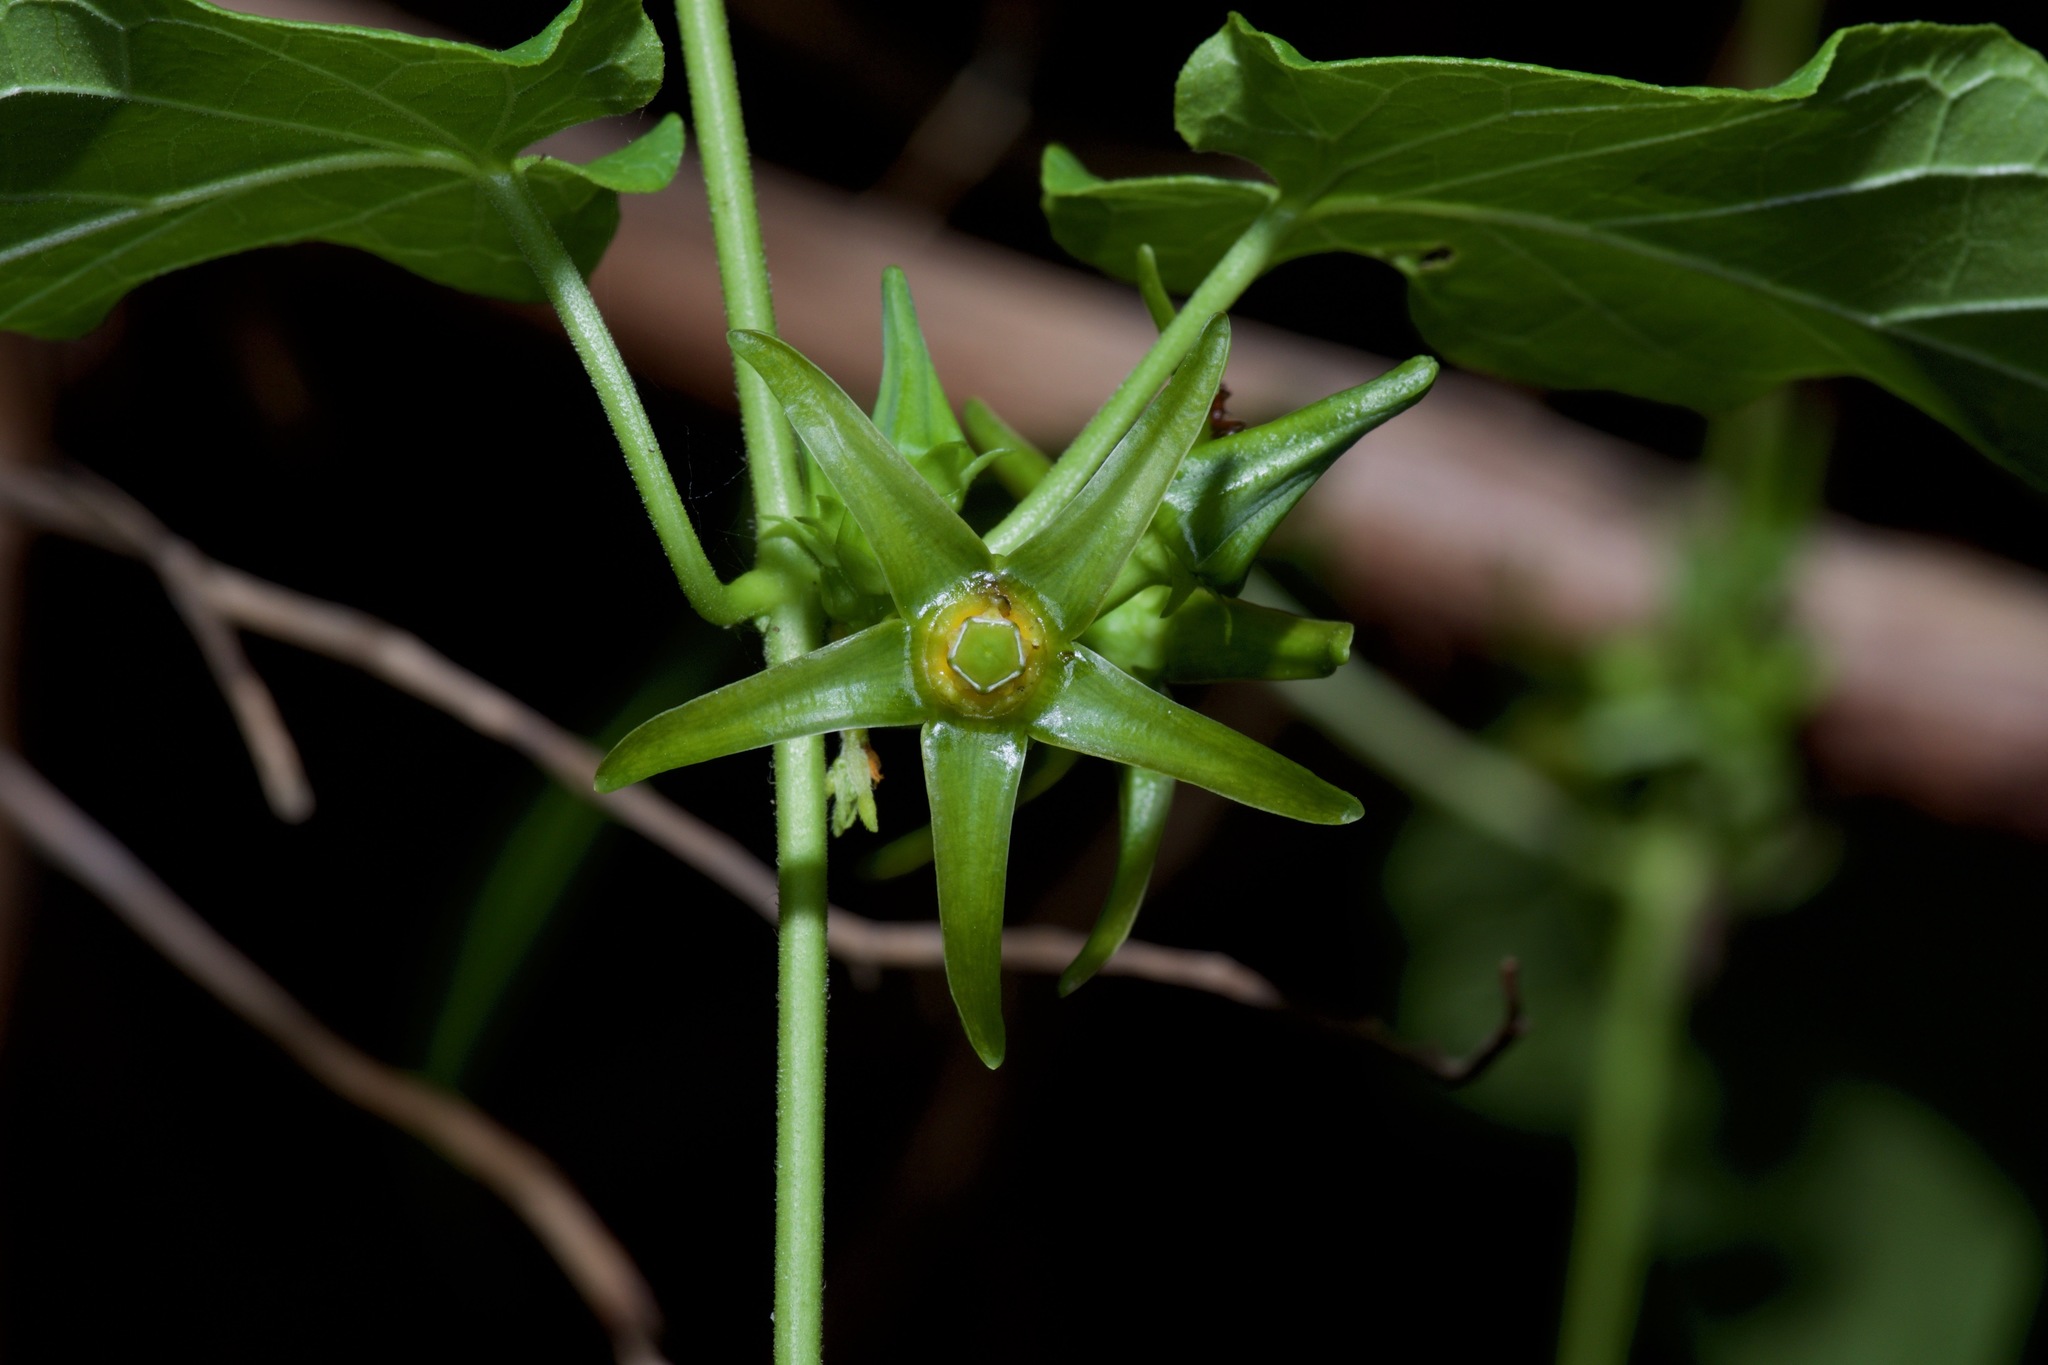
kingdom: Plantae
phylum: Tracheophyta
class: Magnoliopsida
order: Gentianales
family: Apocynaceae
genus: Gonolobus
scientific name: Gonolobus suberosus
